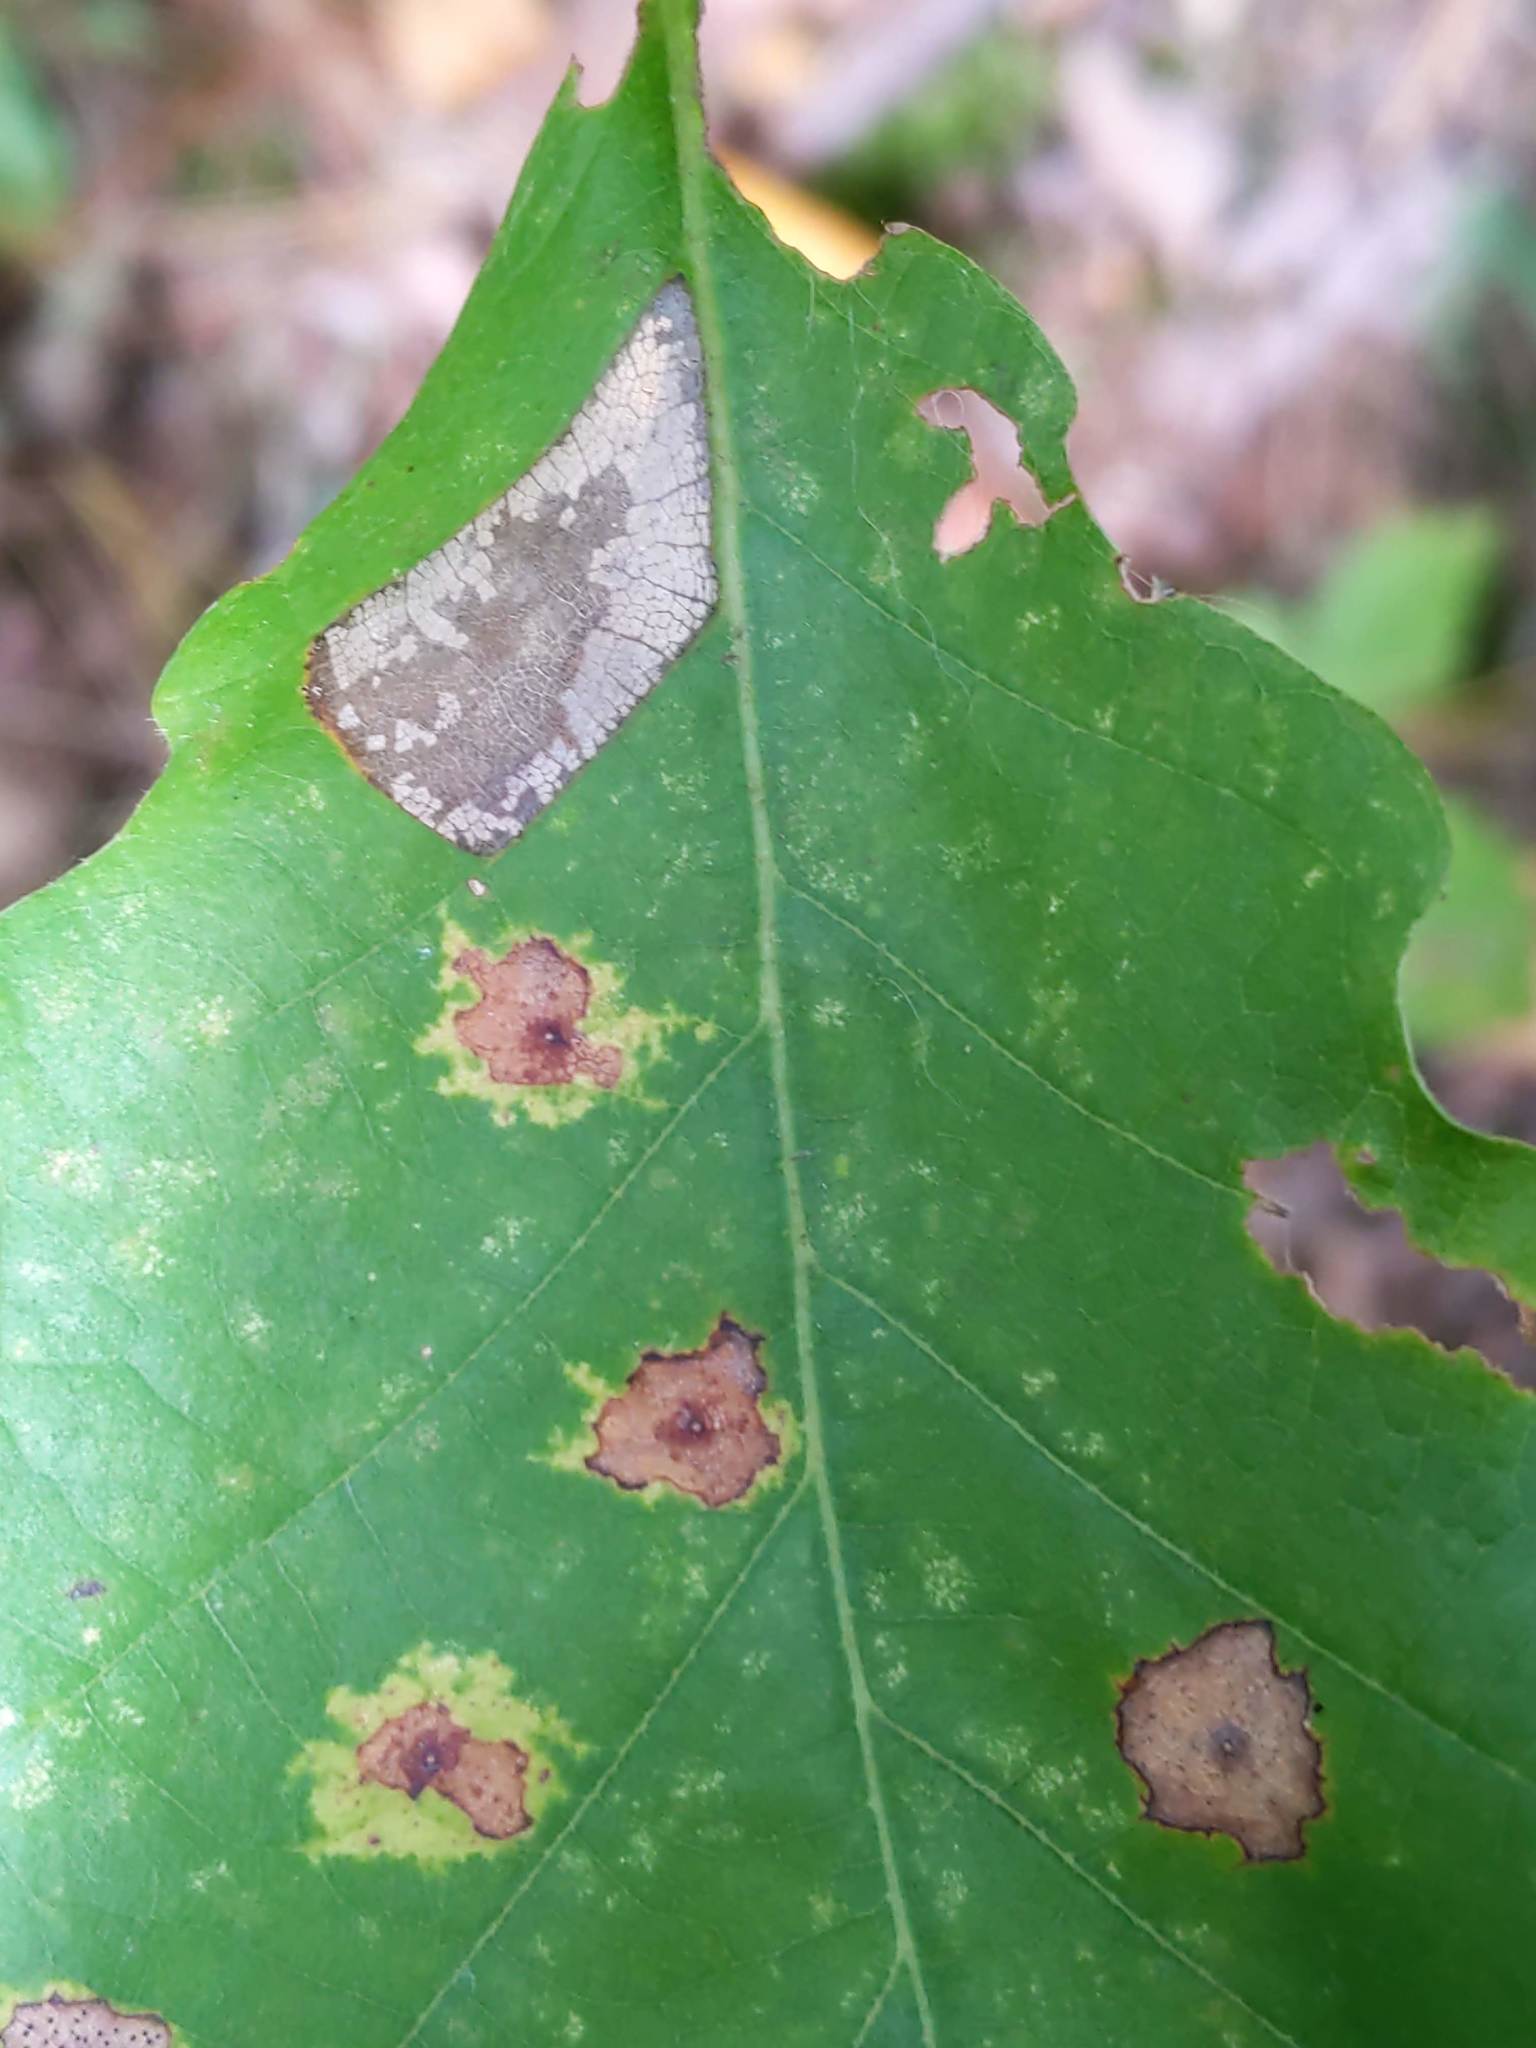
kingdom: Animalia
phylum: Arthropoda
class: Insecta
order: Lepidoptera
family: Gracillariidae
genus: Phyllonorycter
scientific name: Phyllonorycter
